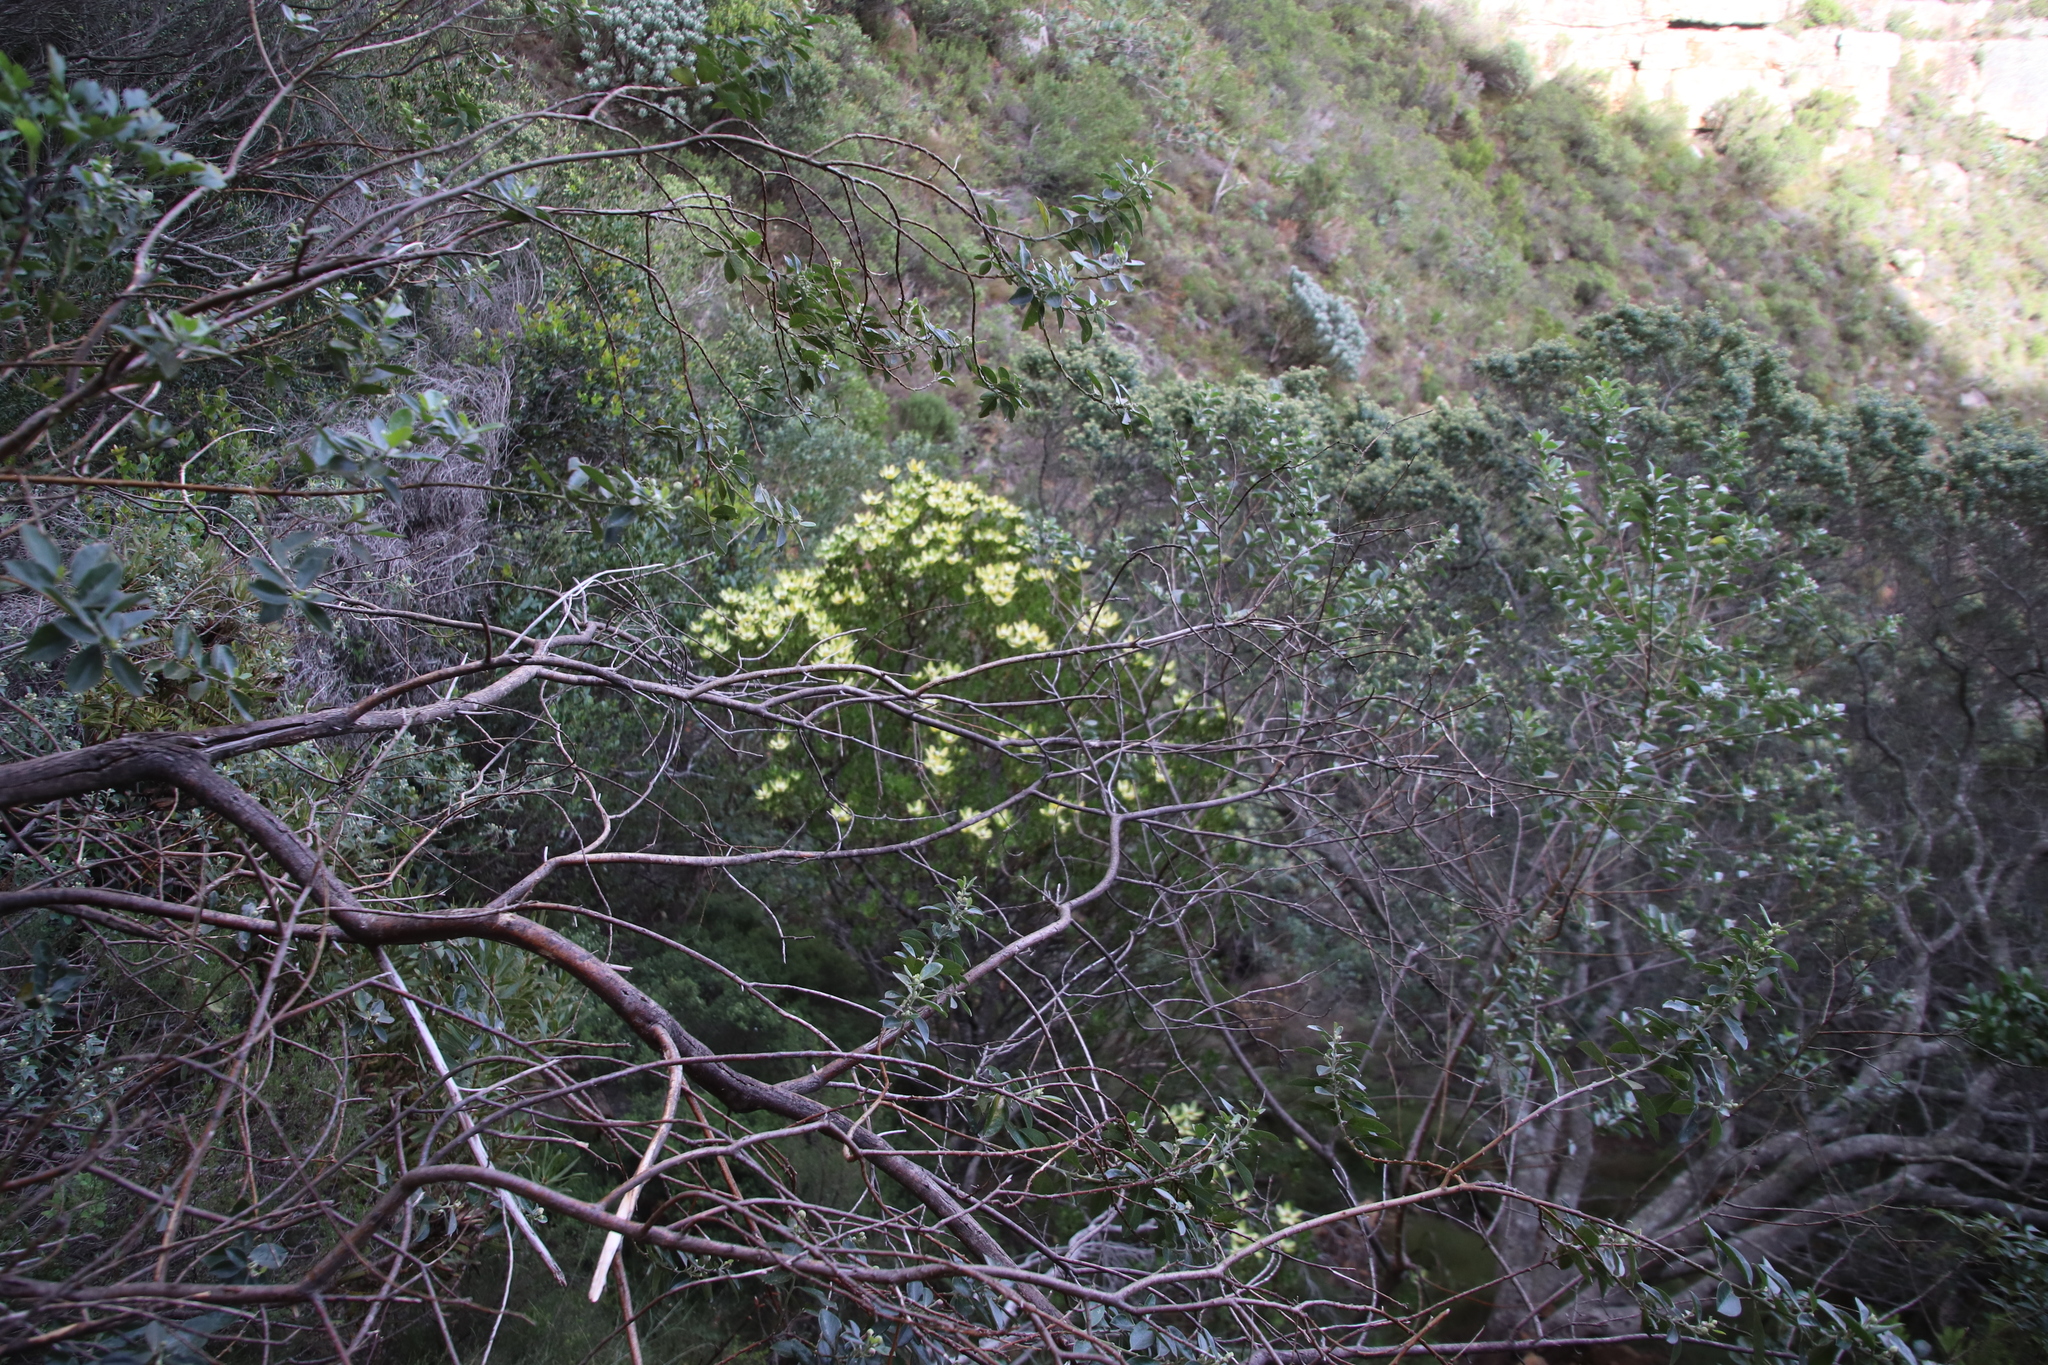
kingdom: Plantae
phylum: Tracheophyta
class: Magnoliopsida
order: Proteales
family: Proteaceae
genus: Leucadendron
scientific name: Leucadendron strobilinum
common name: Mountain rose
